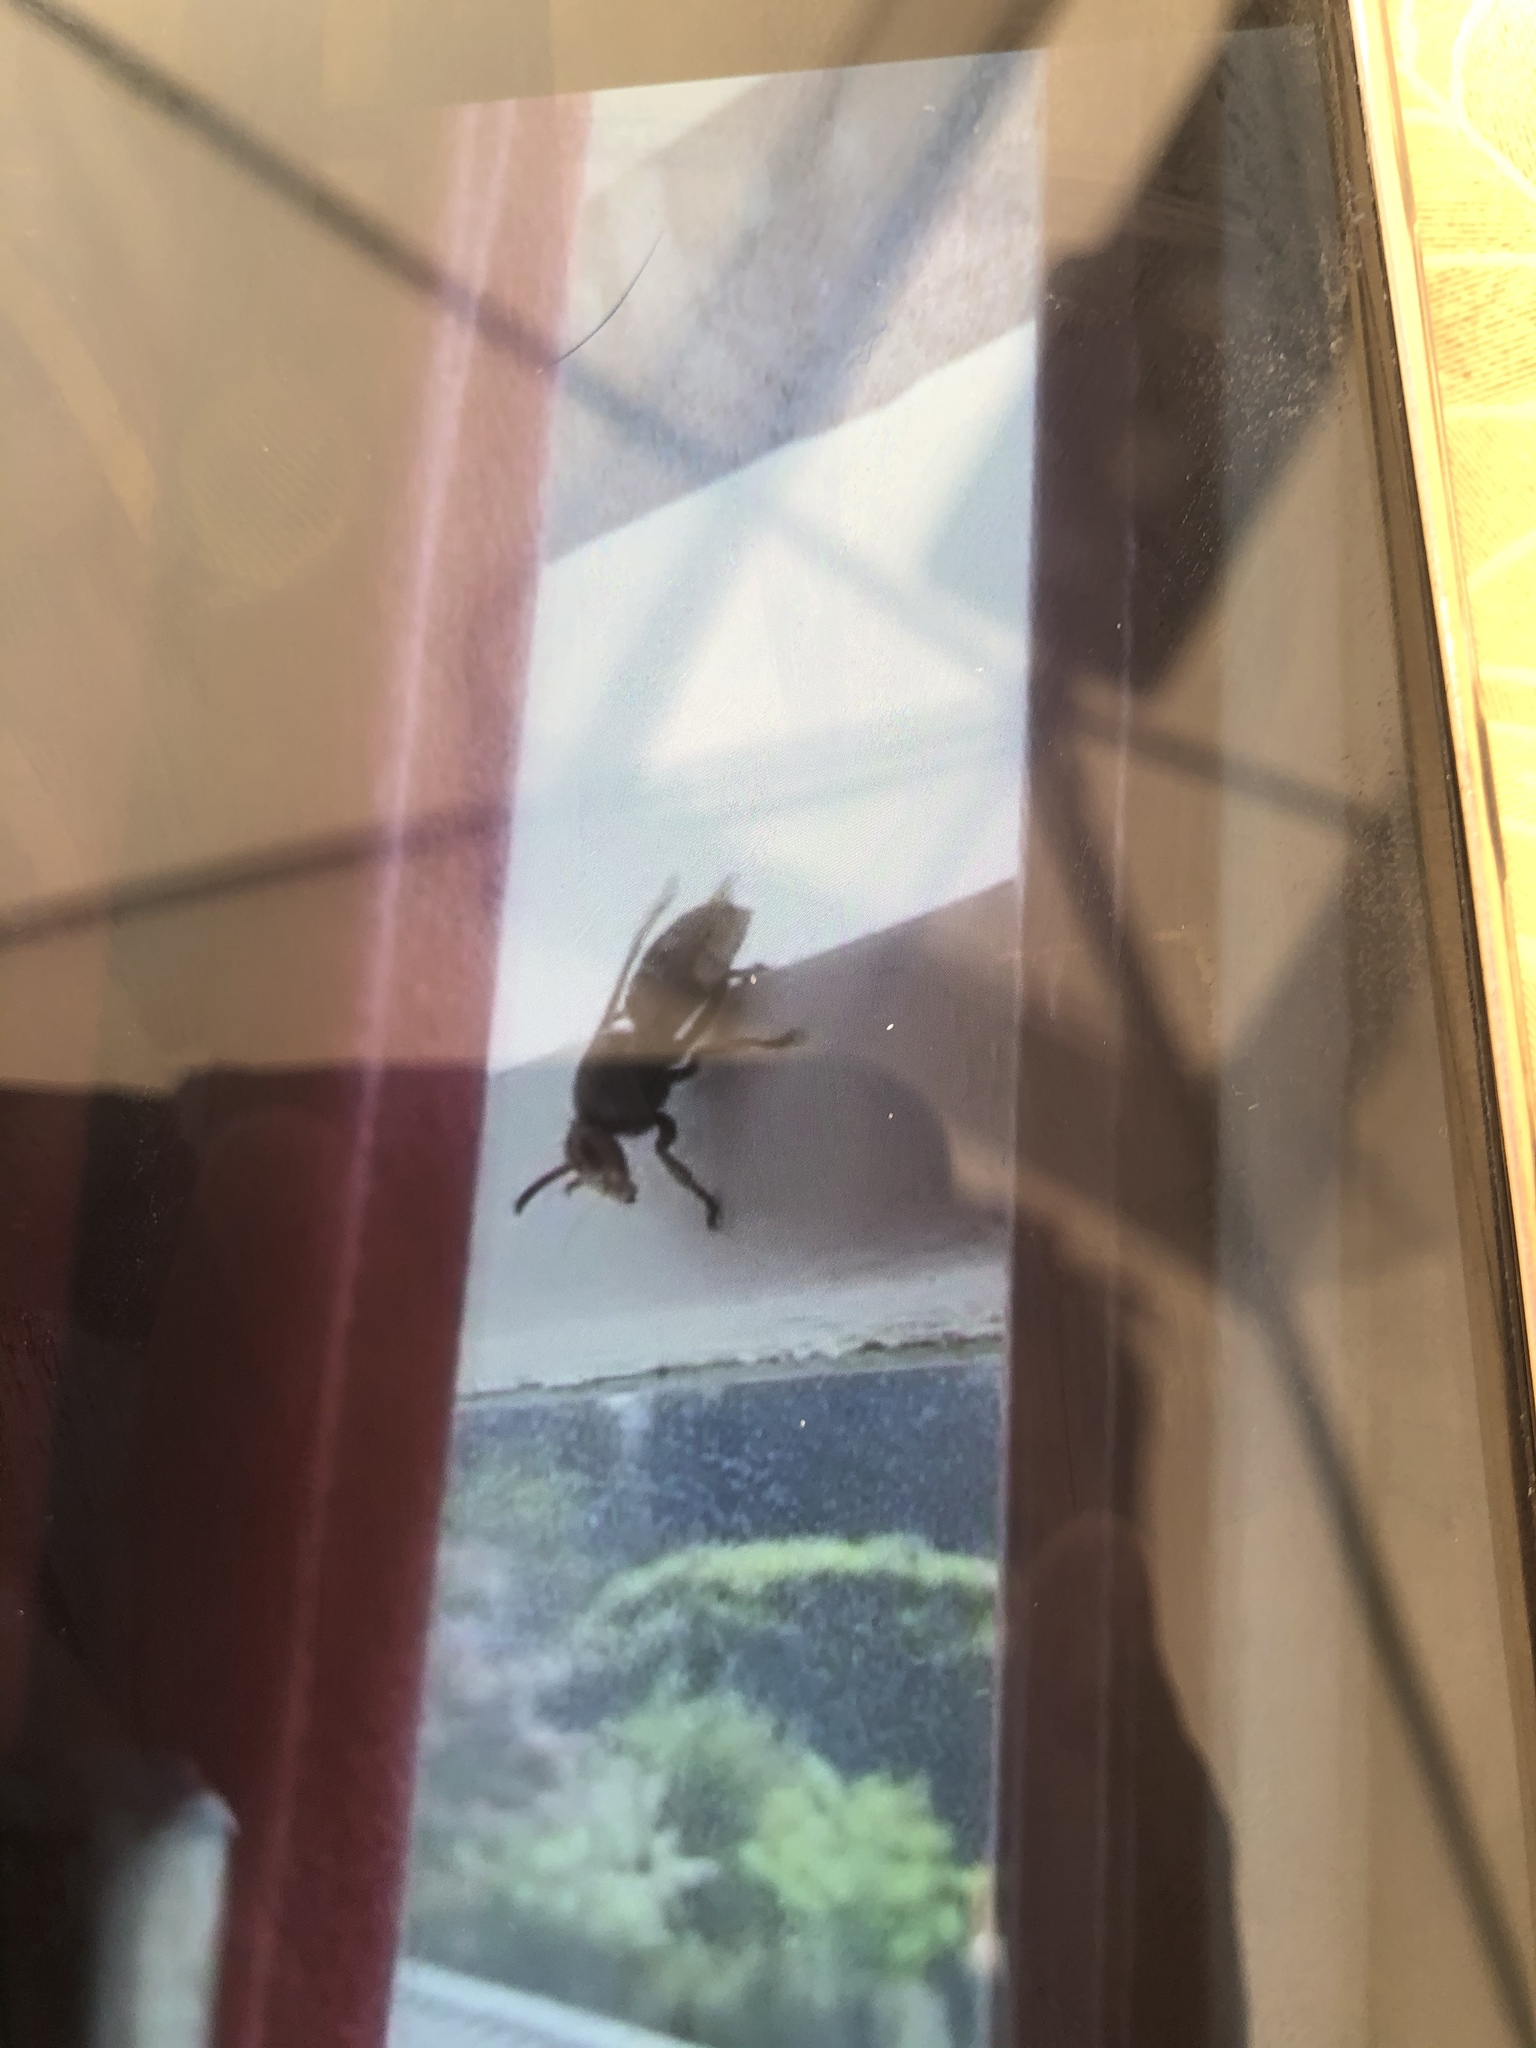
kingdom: Animalia
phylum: Arthropoda
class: Insecta
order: Hymenoptera
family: Vespidae
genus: Vespa
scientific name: Vespa crabro
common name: Hornet
